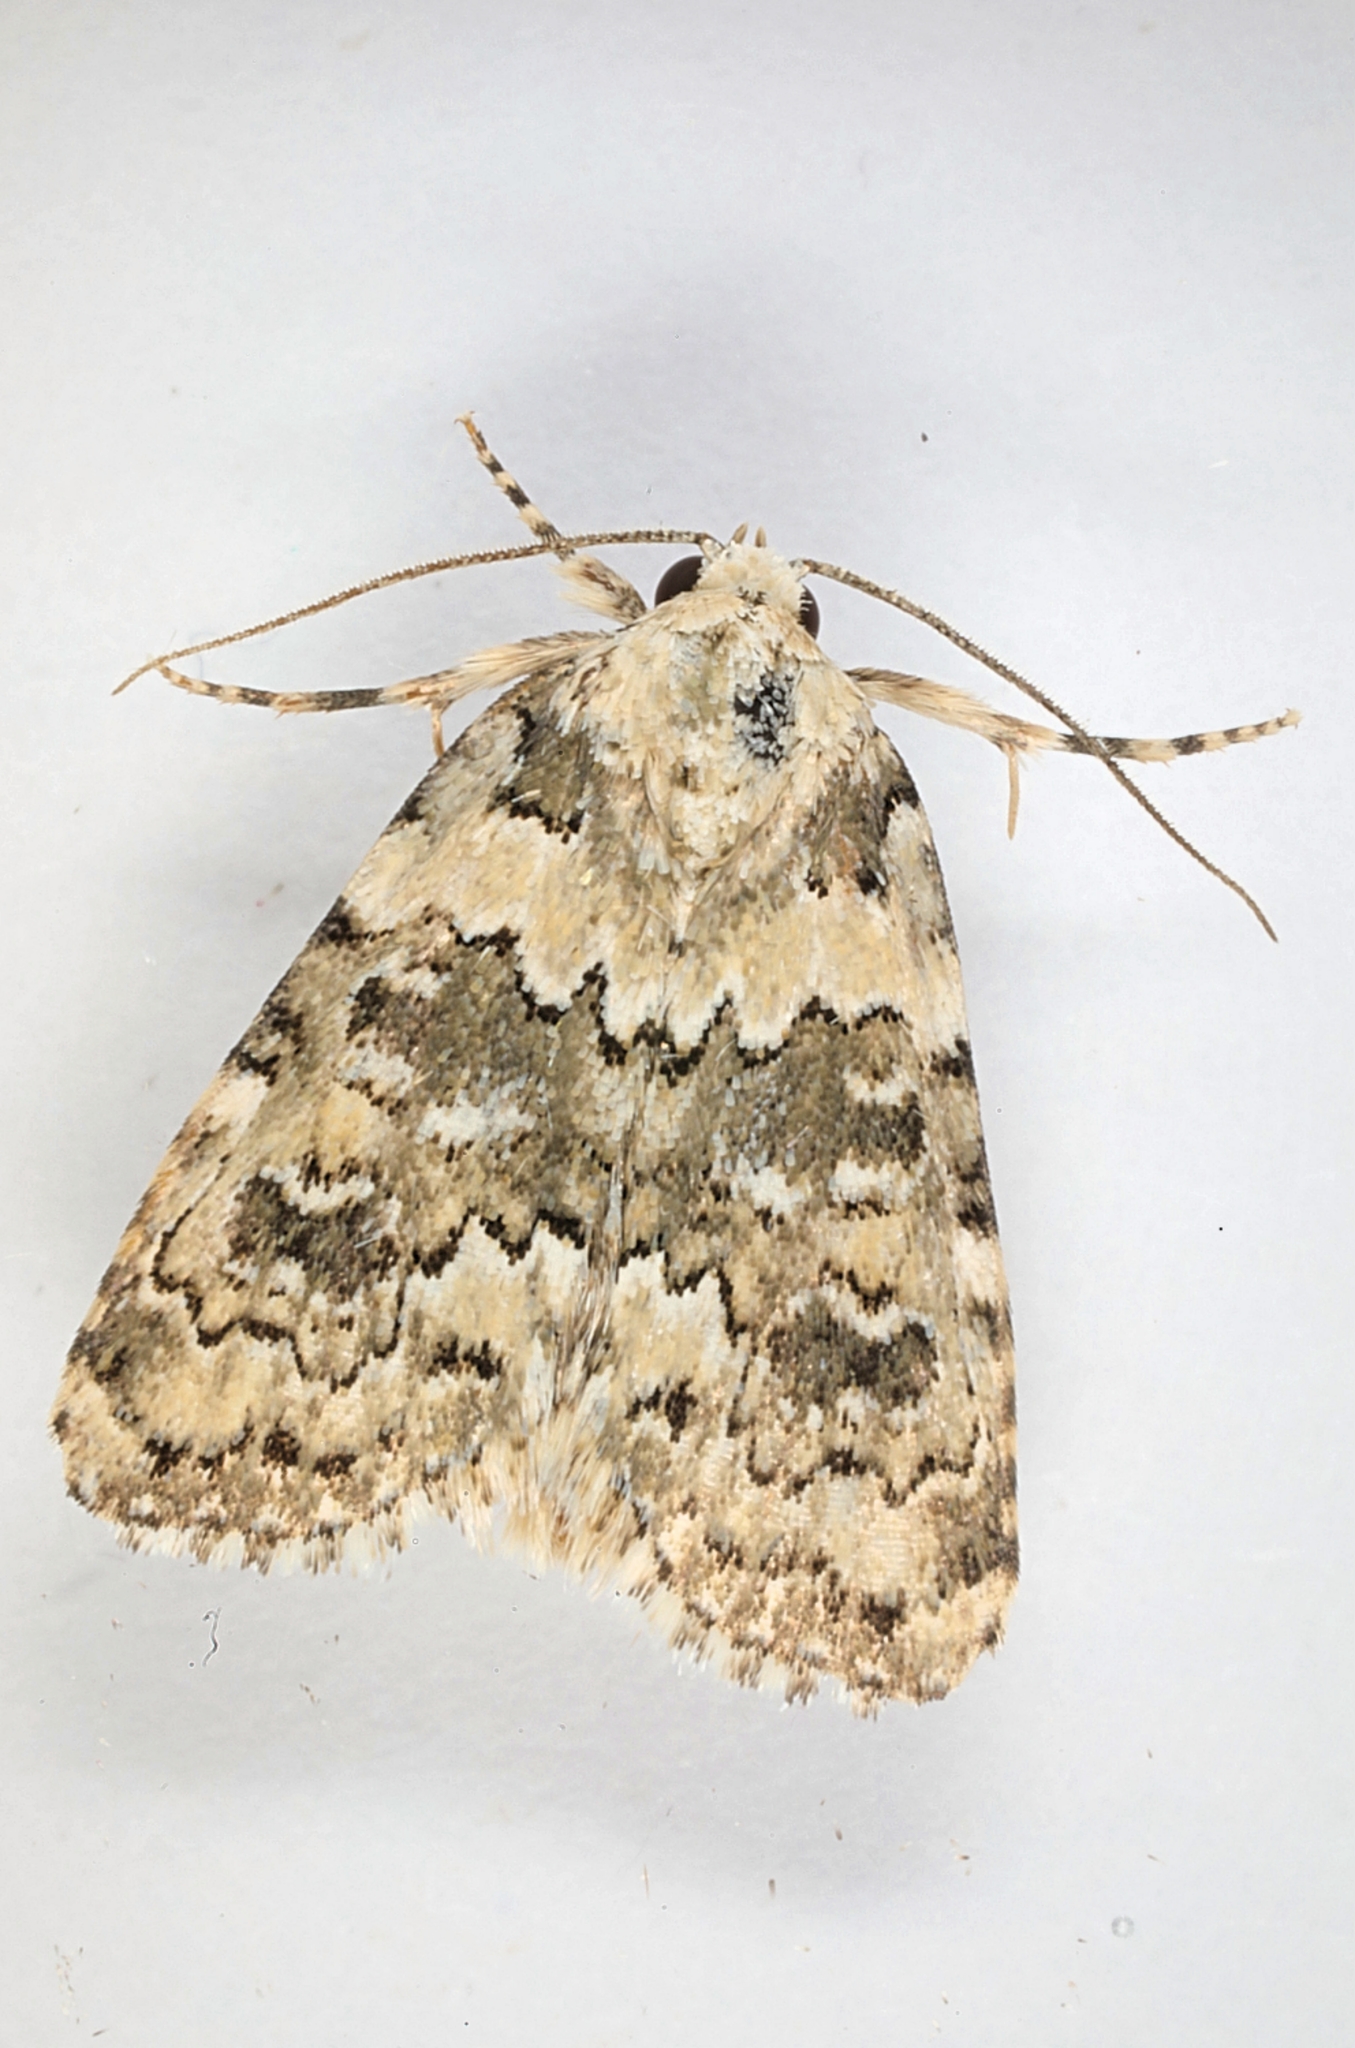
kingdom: Animalia
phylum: Arthropoda
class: Insecta
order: Lepidoptera
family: Noctuidae
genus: Bryophila
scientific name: Bryophila domestica
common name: Marbled beauty
